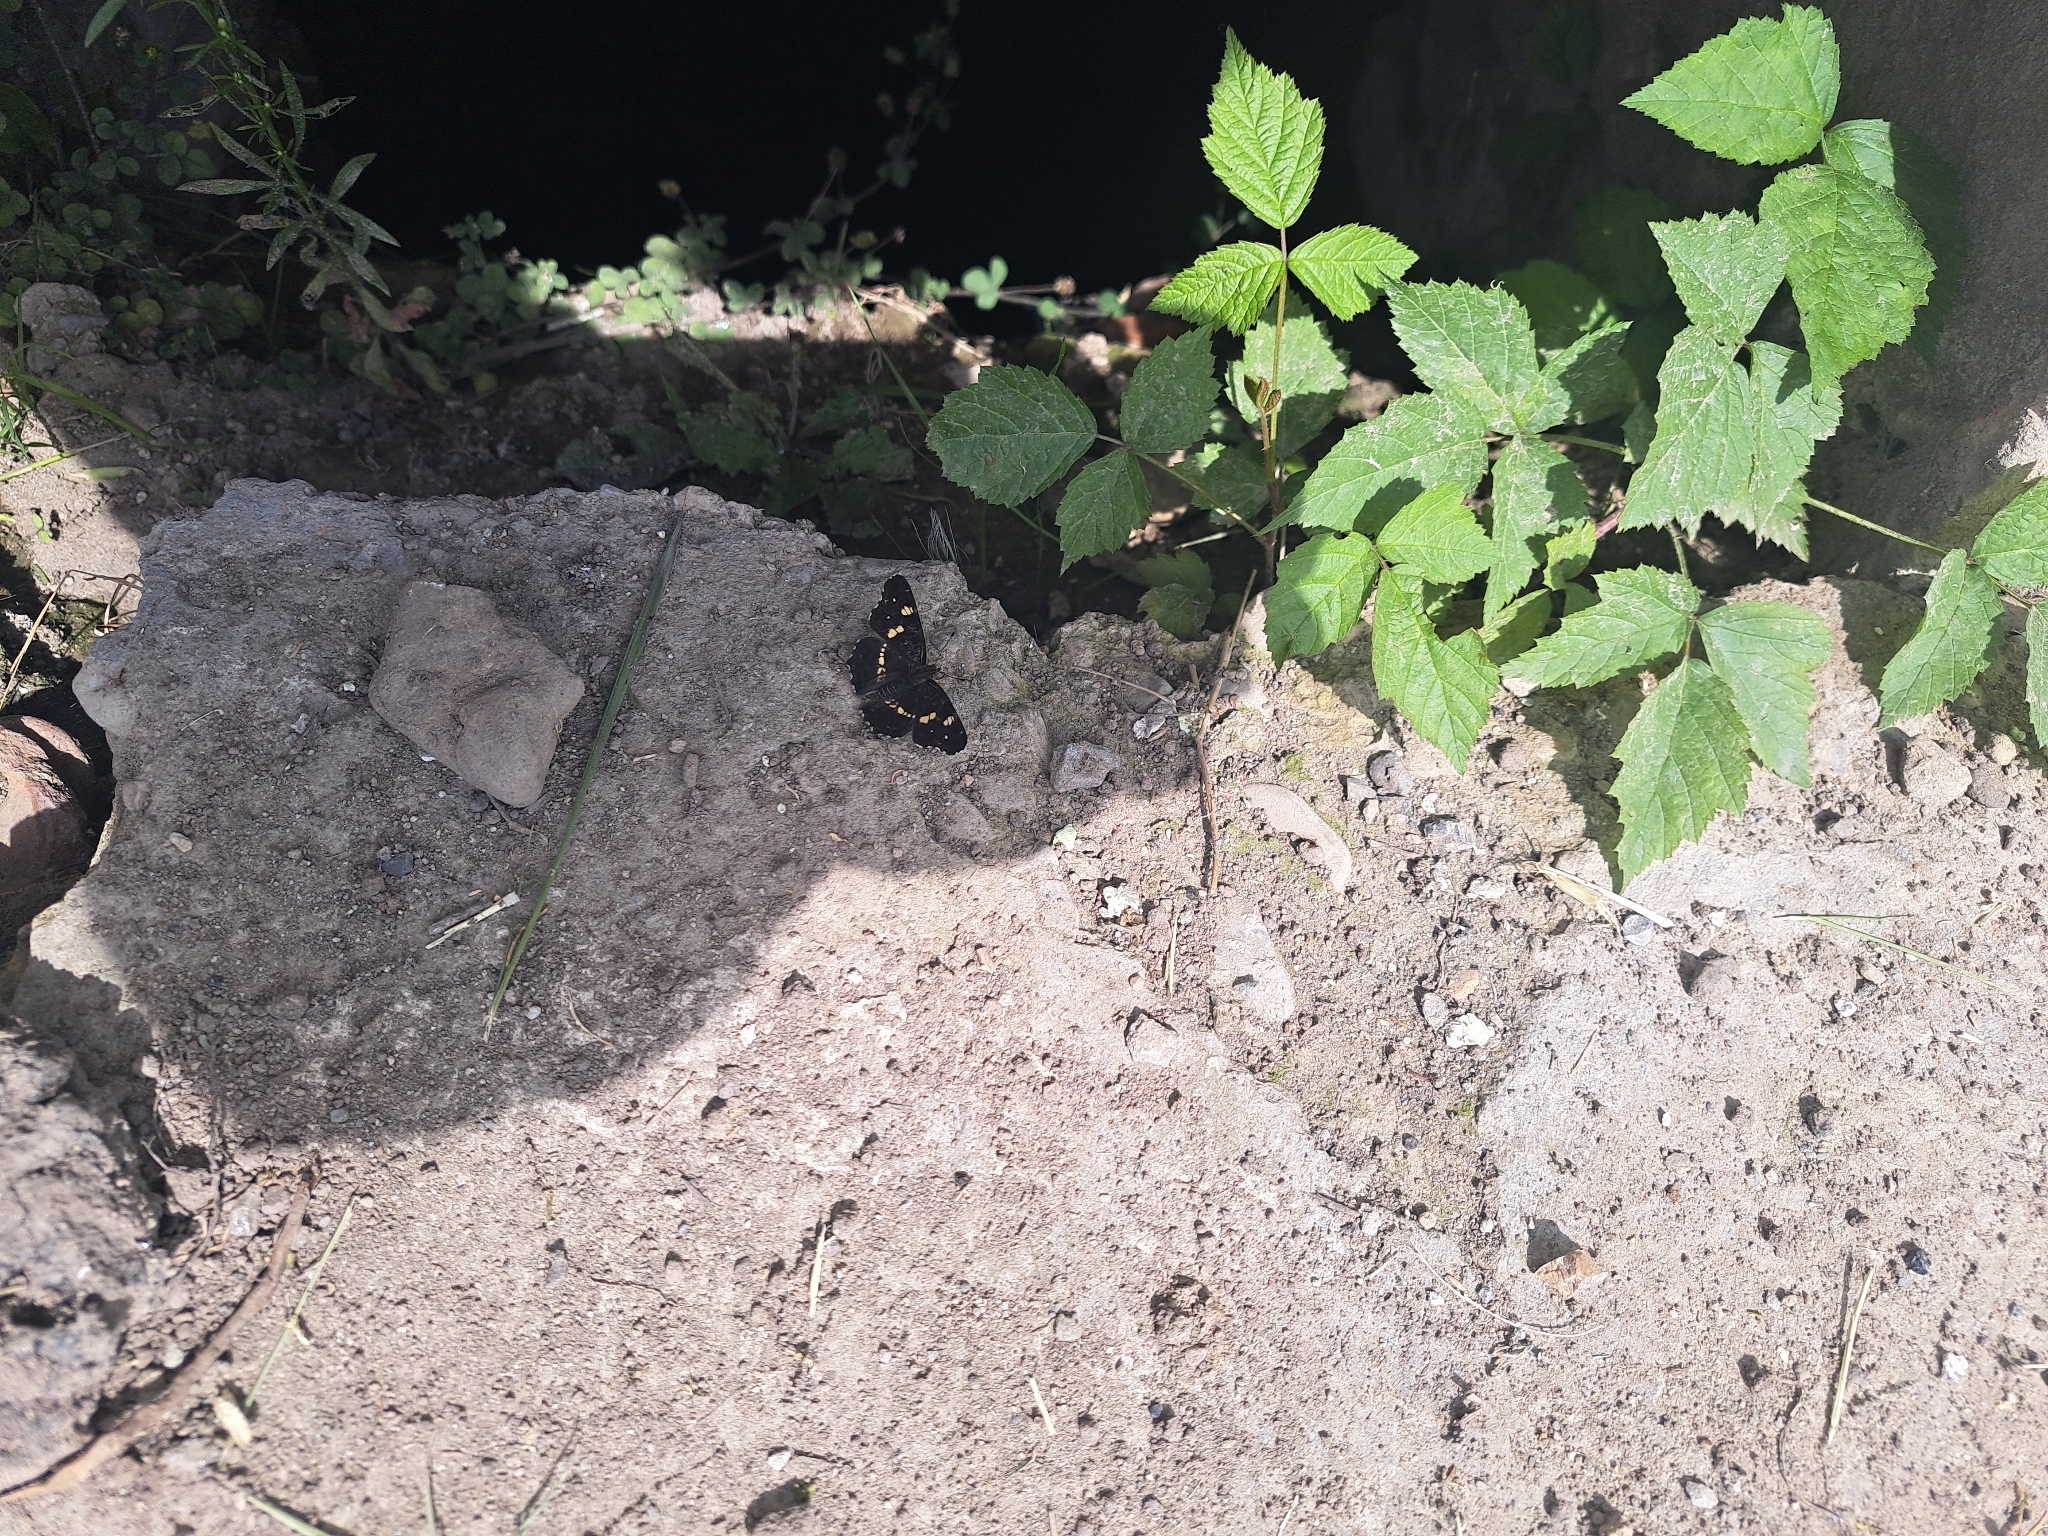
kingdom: Animalia
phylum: Arthropoda
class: Insecta
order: Lepidoptera
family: Nymphalidae
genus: Araschnia
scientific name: Araschnia levana
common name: Map butterfly
